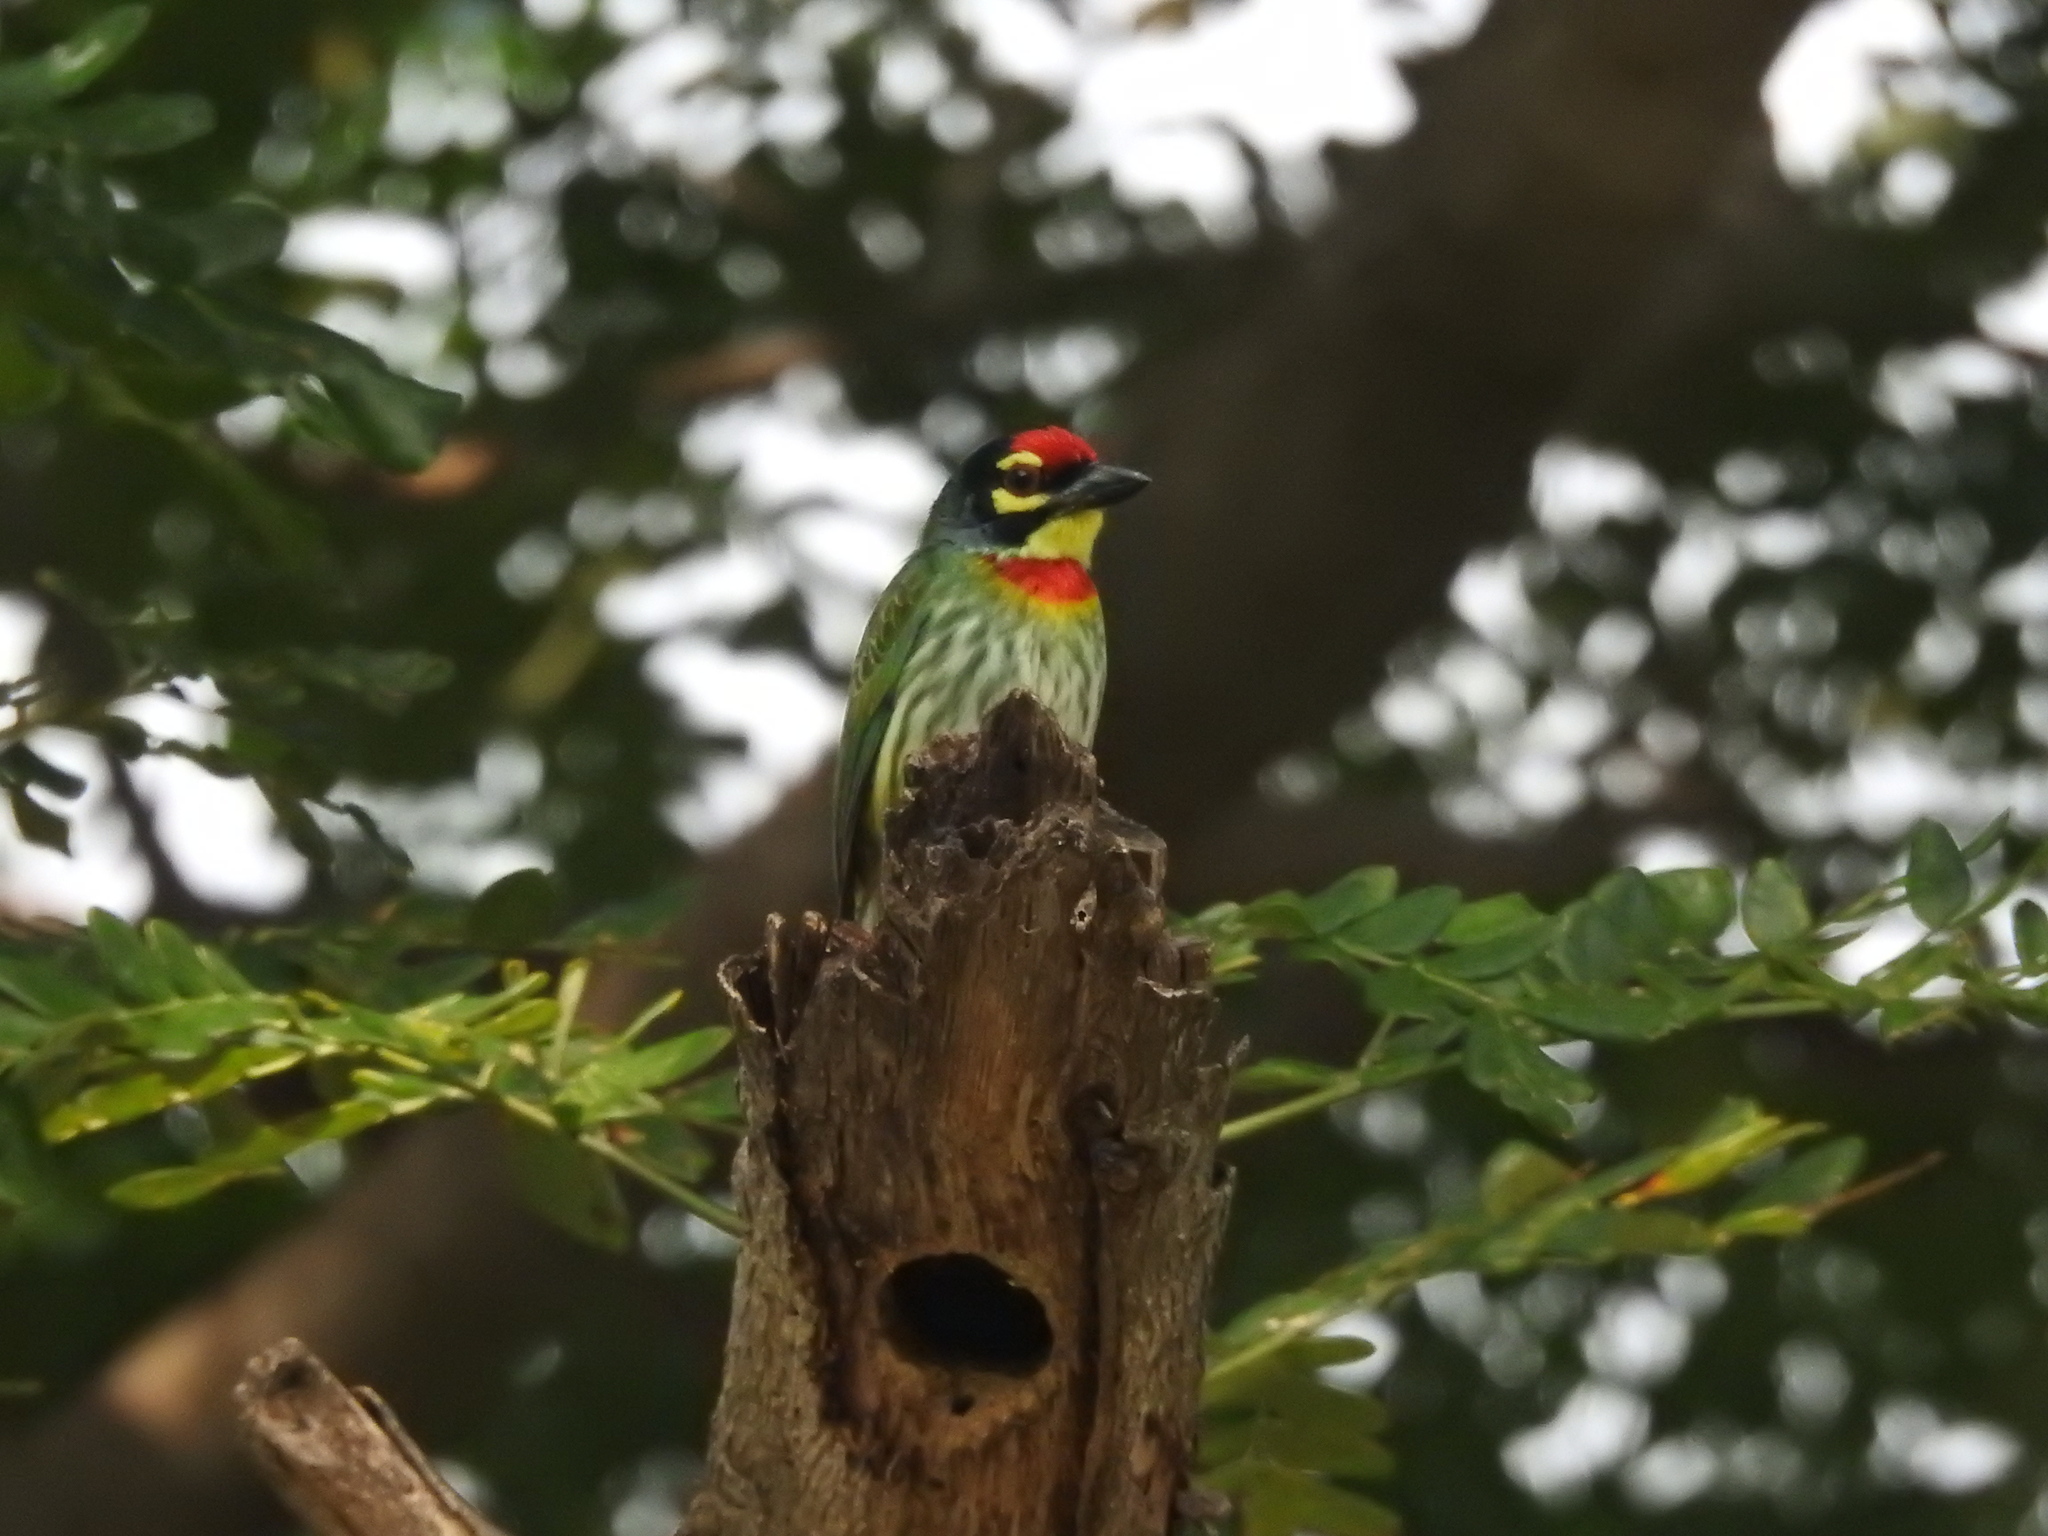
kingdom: Animalia
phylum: Chordata
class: Aves
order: Piciformes
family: Megalaimidae
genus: Psilopogon
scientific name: Psilopogon haemacephalus
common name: Coppersmith barbet
